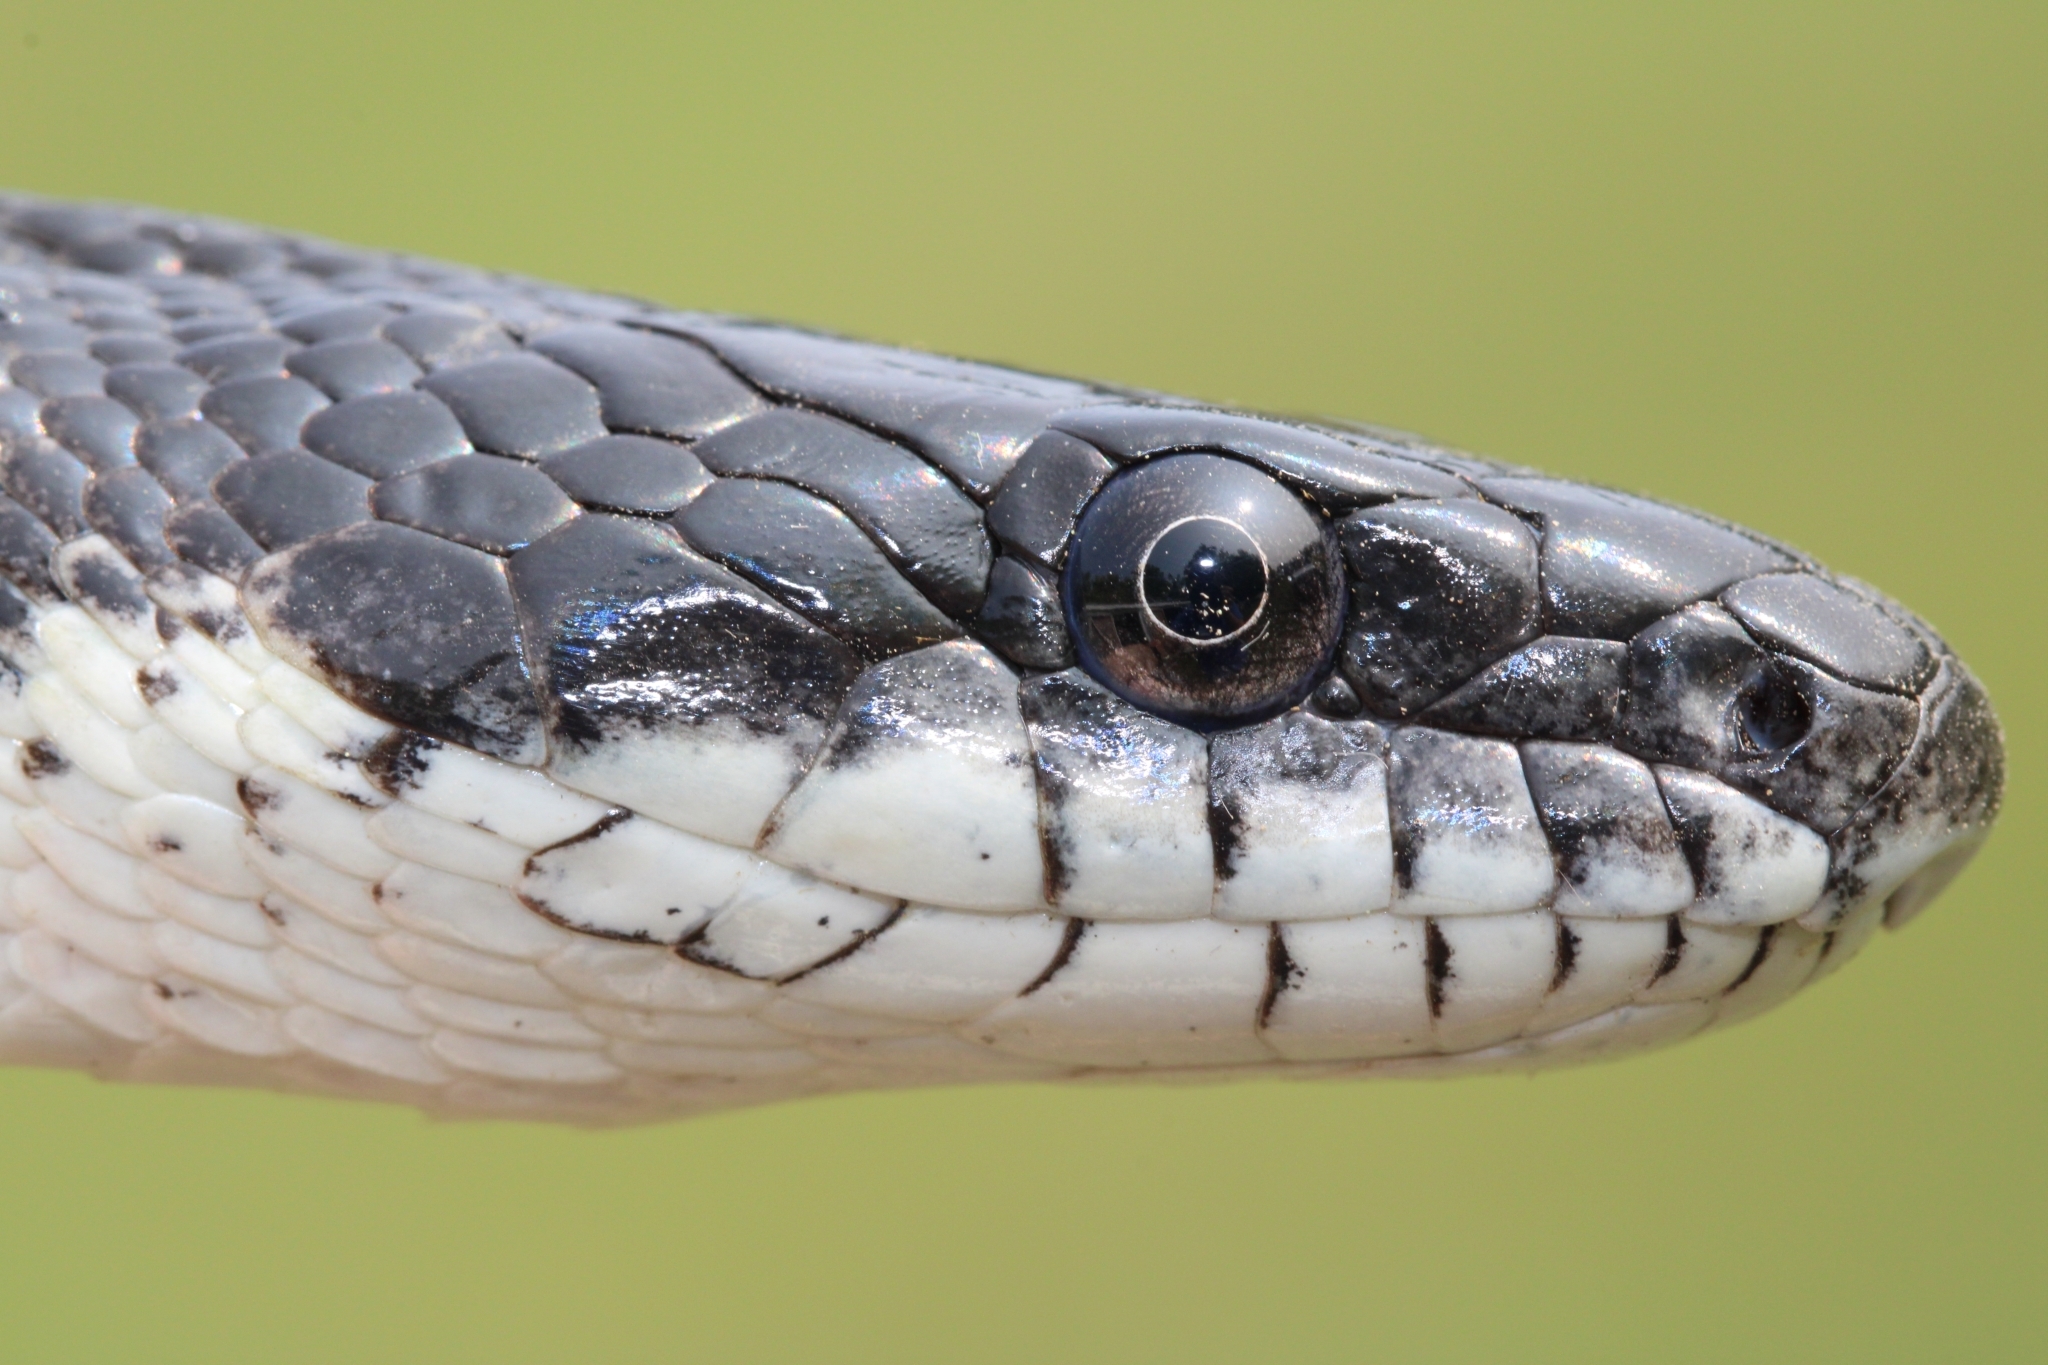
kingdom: Animalia
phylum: Chordata
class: Squamata
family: Colubridae
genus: Pantherophis
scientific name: Pantherophis alleghaniensis
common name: Eastern rat snake
